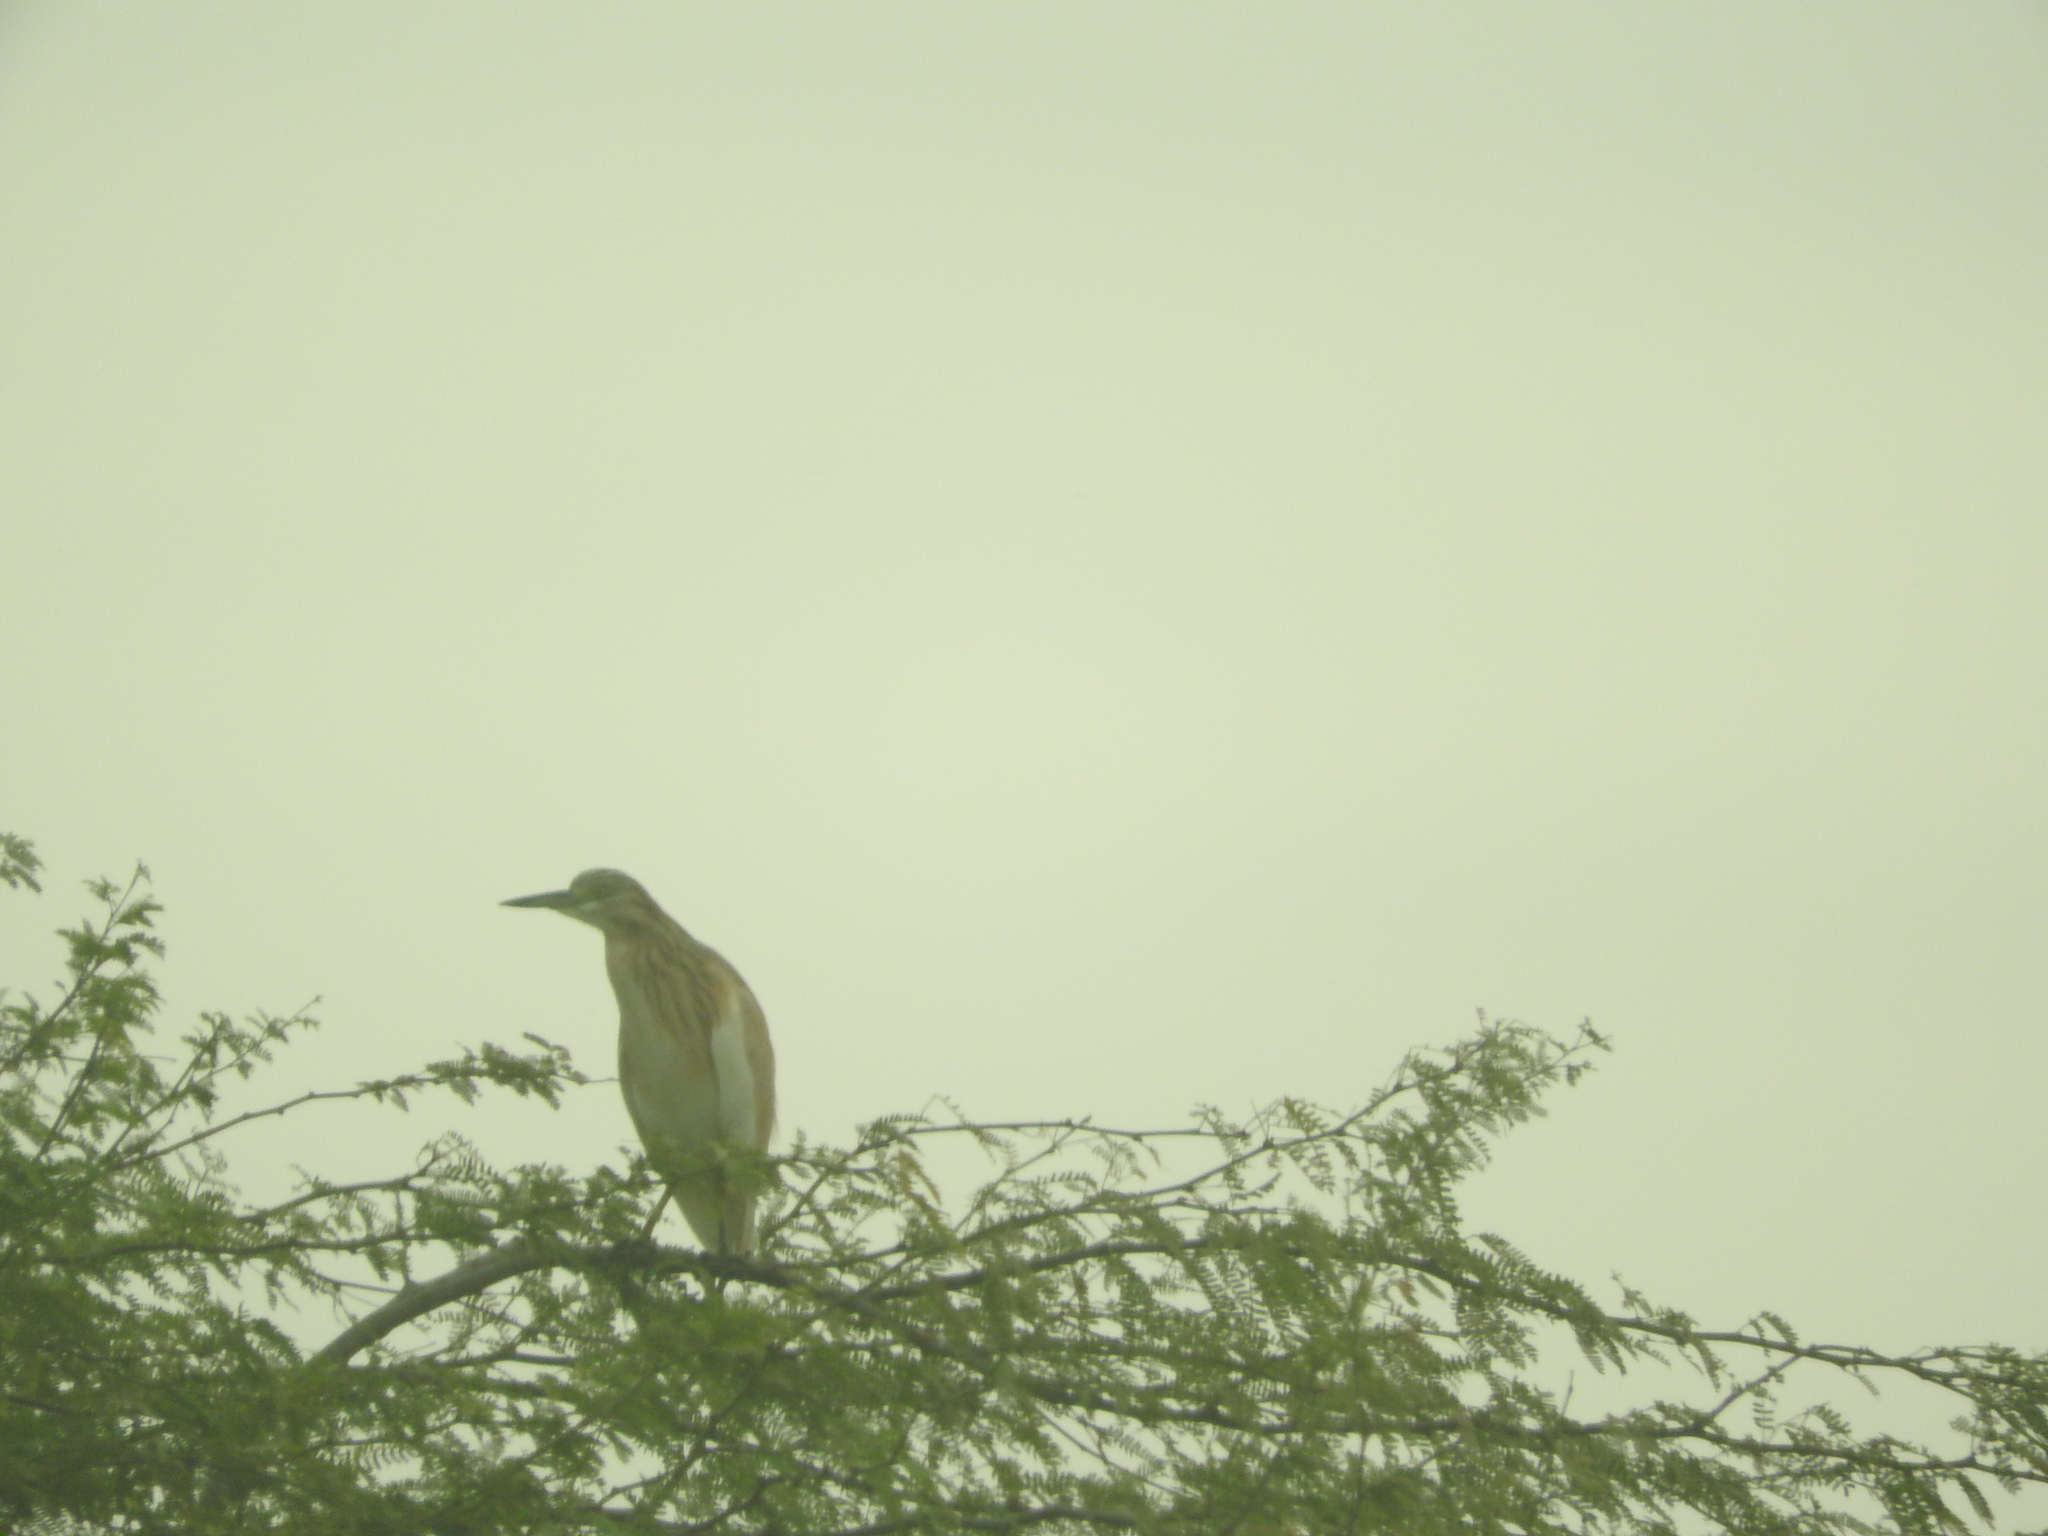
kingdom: Animalia
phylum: Chordata
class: Aves
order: Pelecaniformes
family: Ardeidae
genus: Ardeola
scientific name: Ardeola ralloides
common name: Squacco heron
